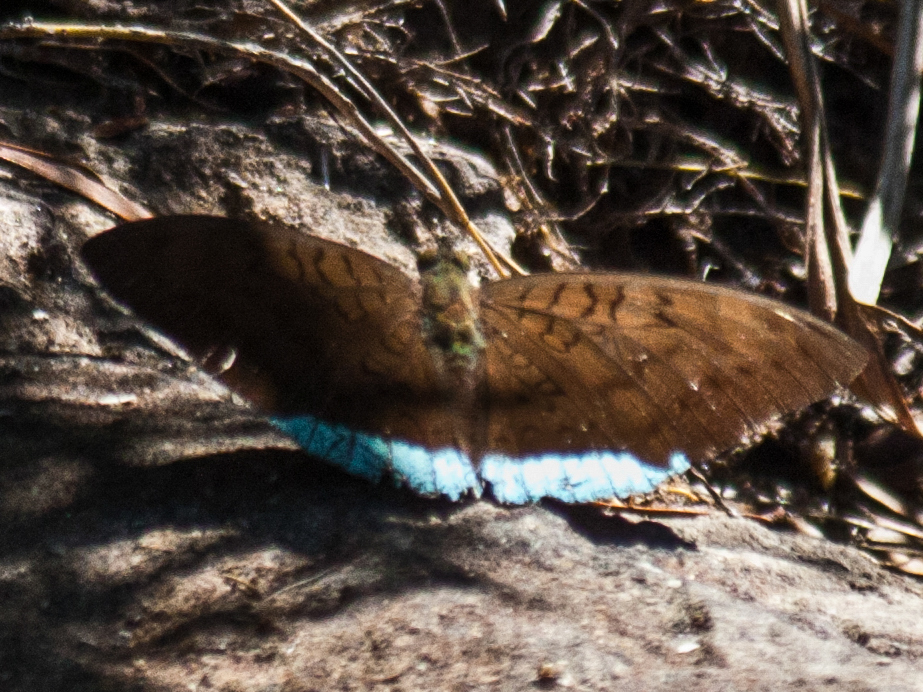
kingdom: Animalia
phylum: Arthropoda
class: Insecta
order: Lepidoptera
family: Nymphalidae
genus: Tanaecia
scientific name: Tanaecia julii
